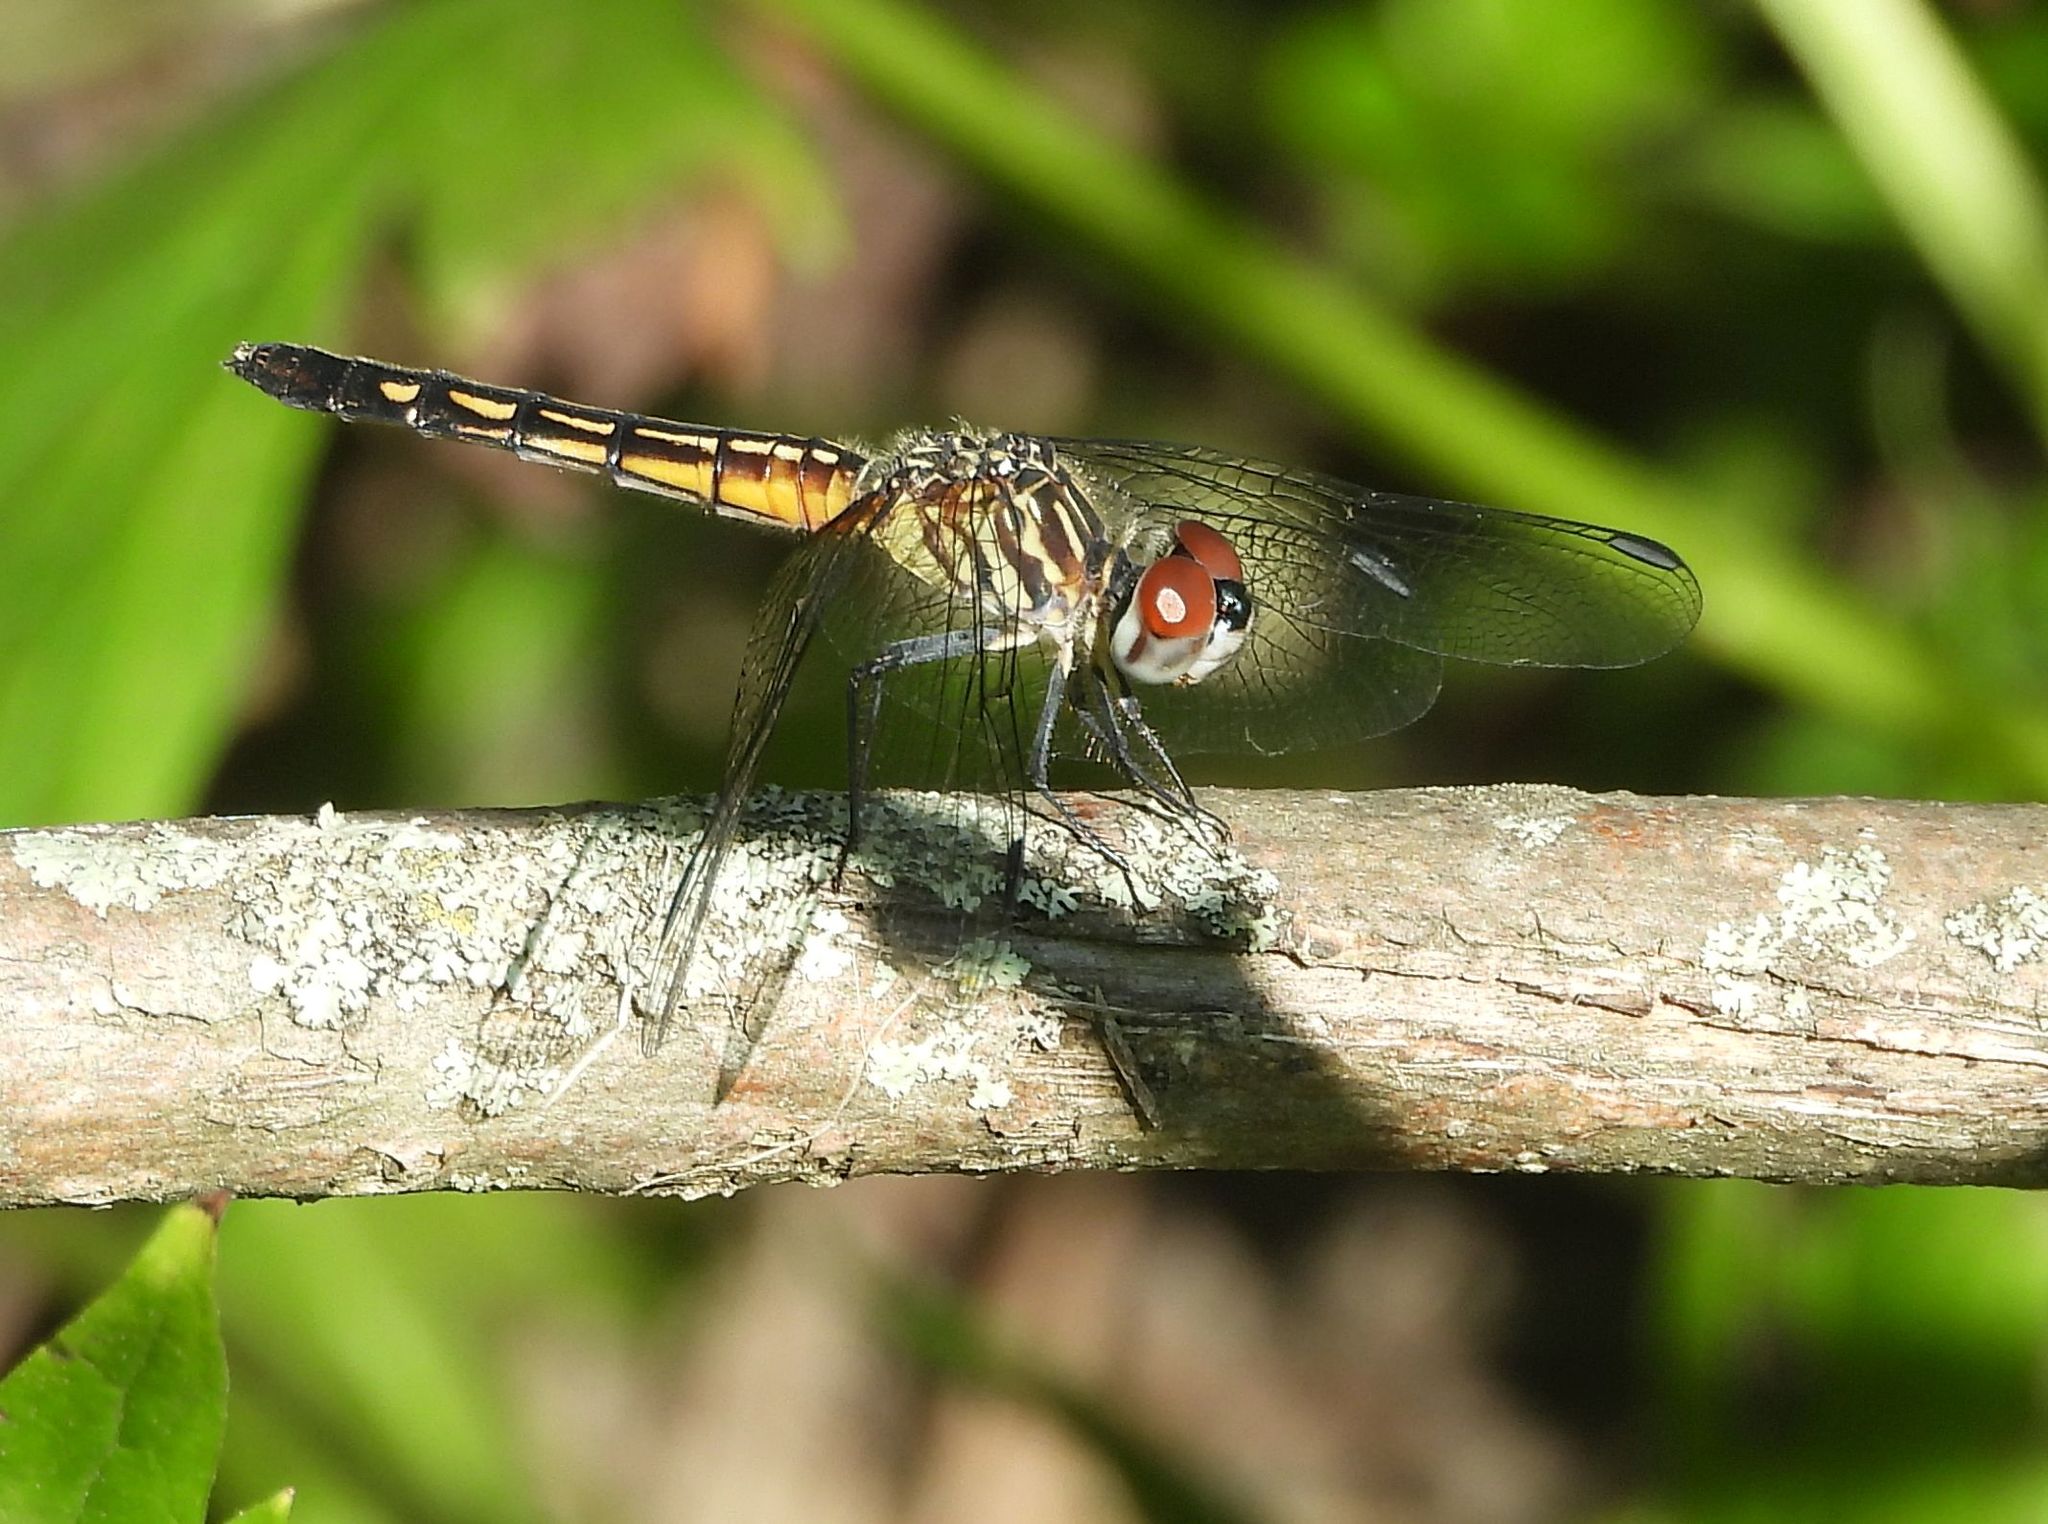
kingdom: Animalia
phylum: Arthropoda
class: Insecta
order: Odonata
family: Libellulidae
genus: Pachydiplax
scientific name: Pachydiplax longipennis
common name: Blue dasher
